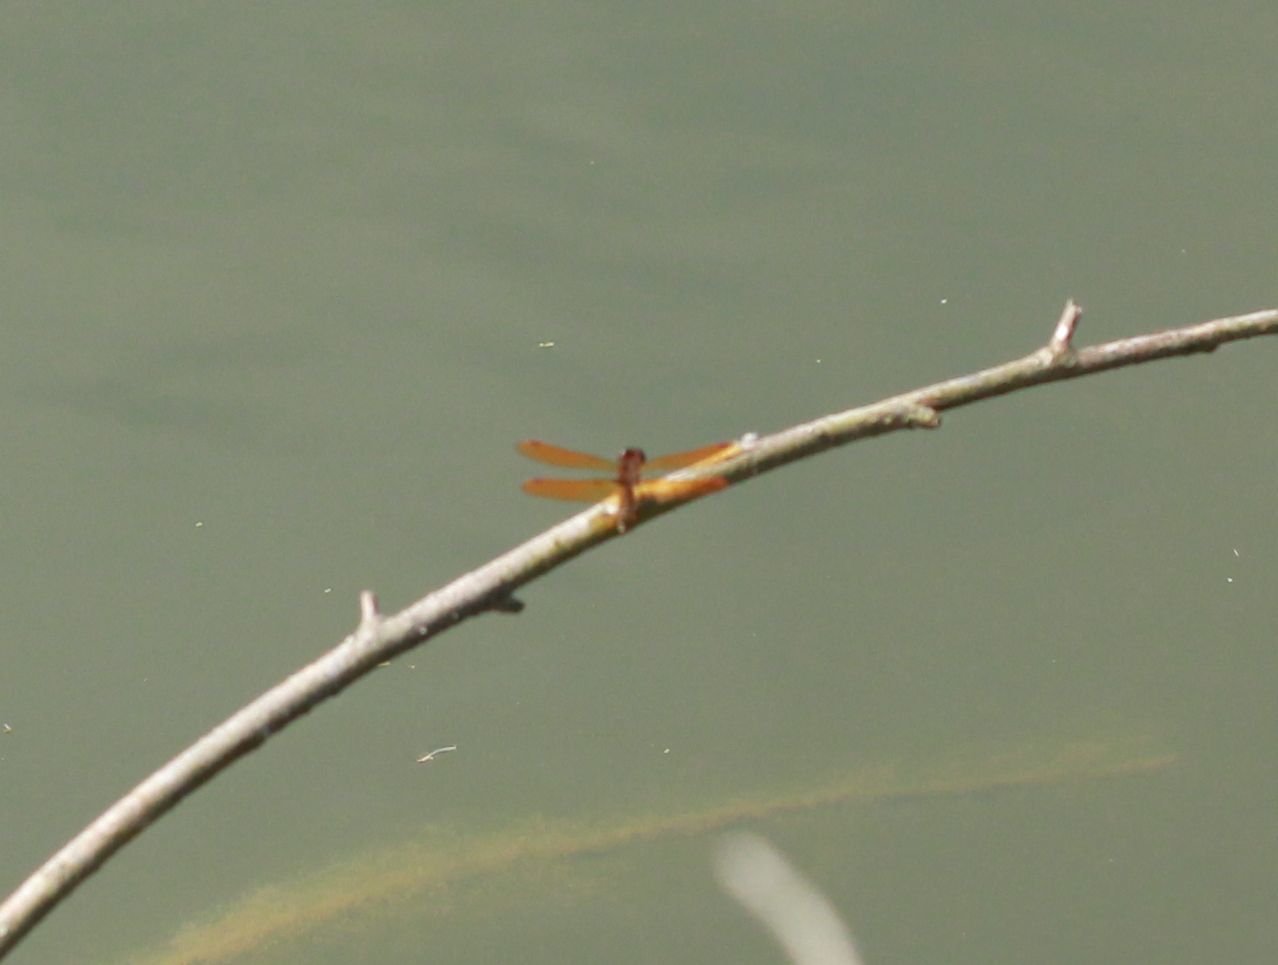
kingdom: Animalia
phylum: Arthropoda
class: Insecta
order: Odonata
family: Libellulidae
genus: Perithemis
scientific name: Perithemis tenera
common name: Eastern amberwing
